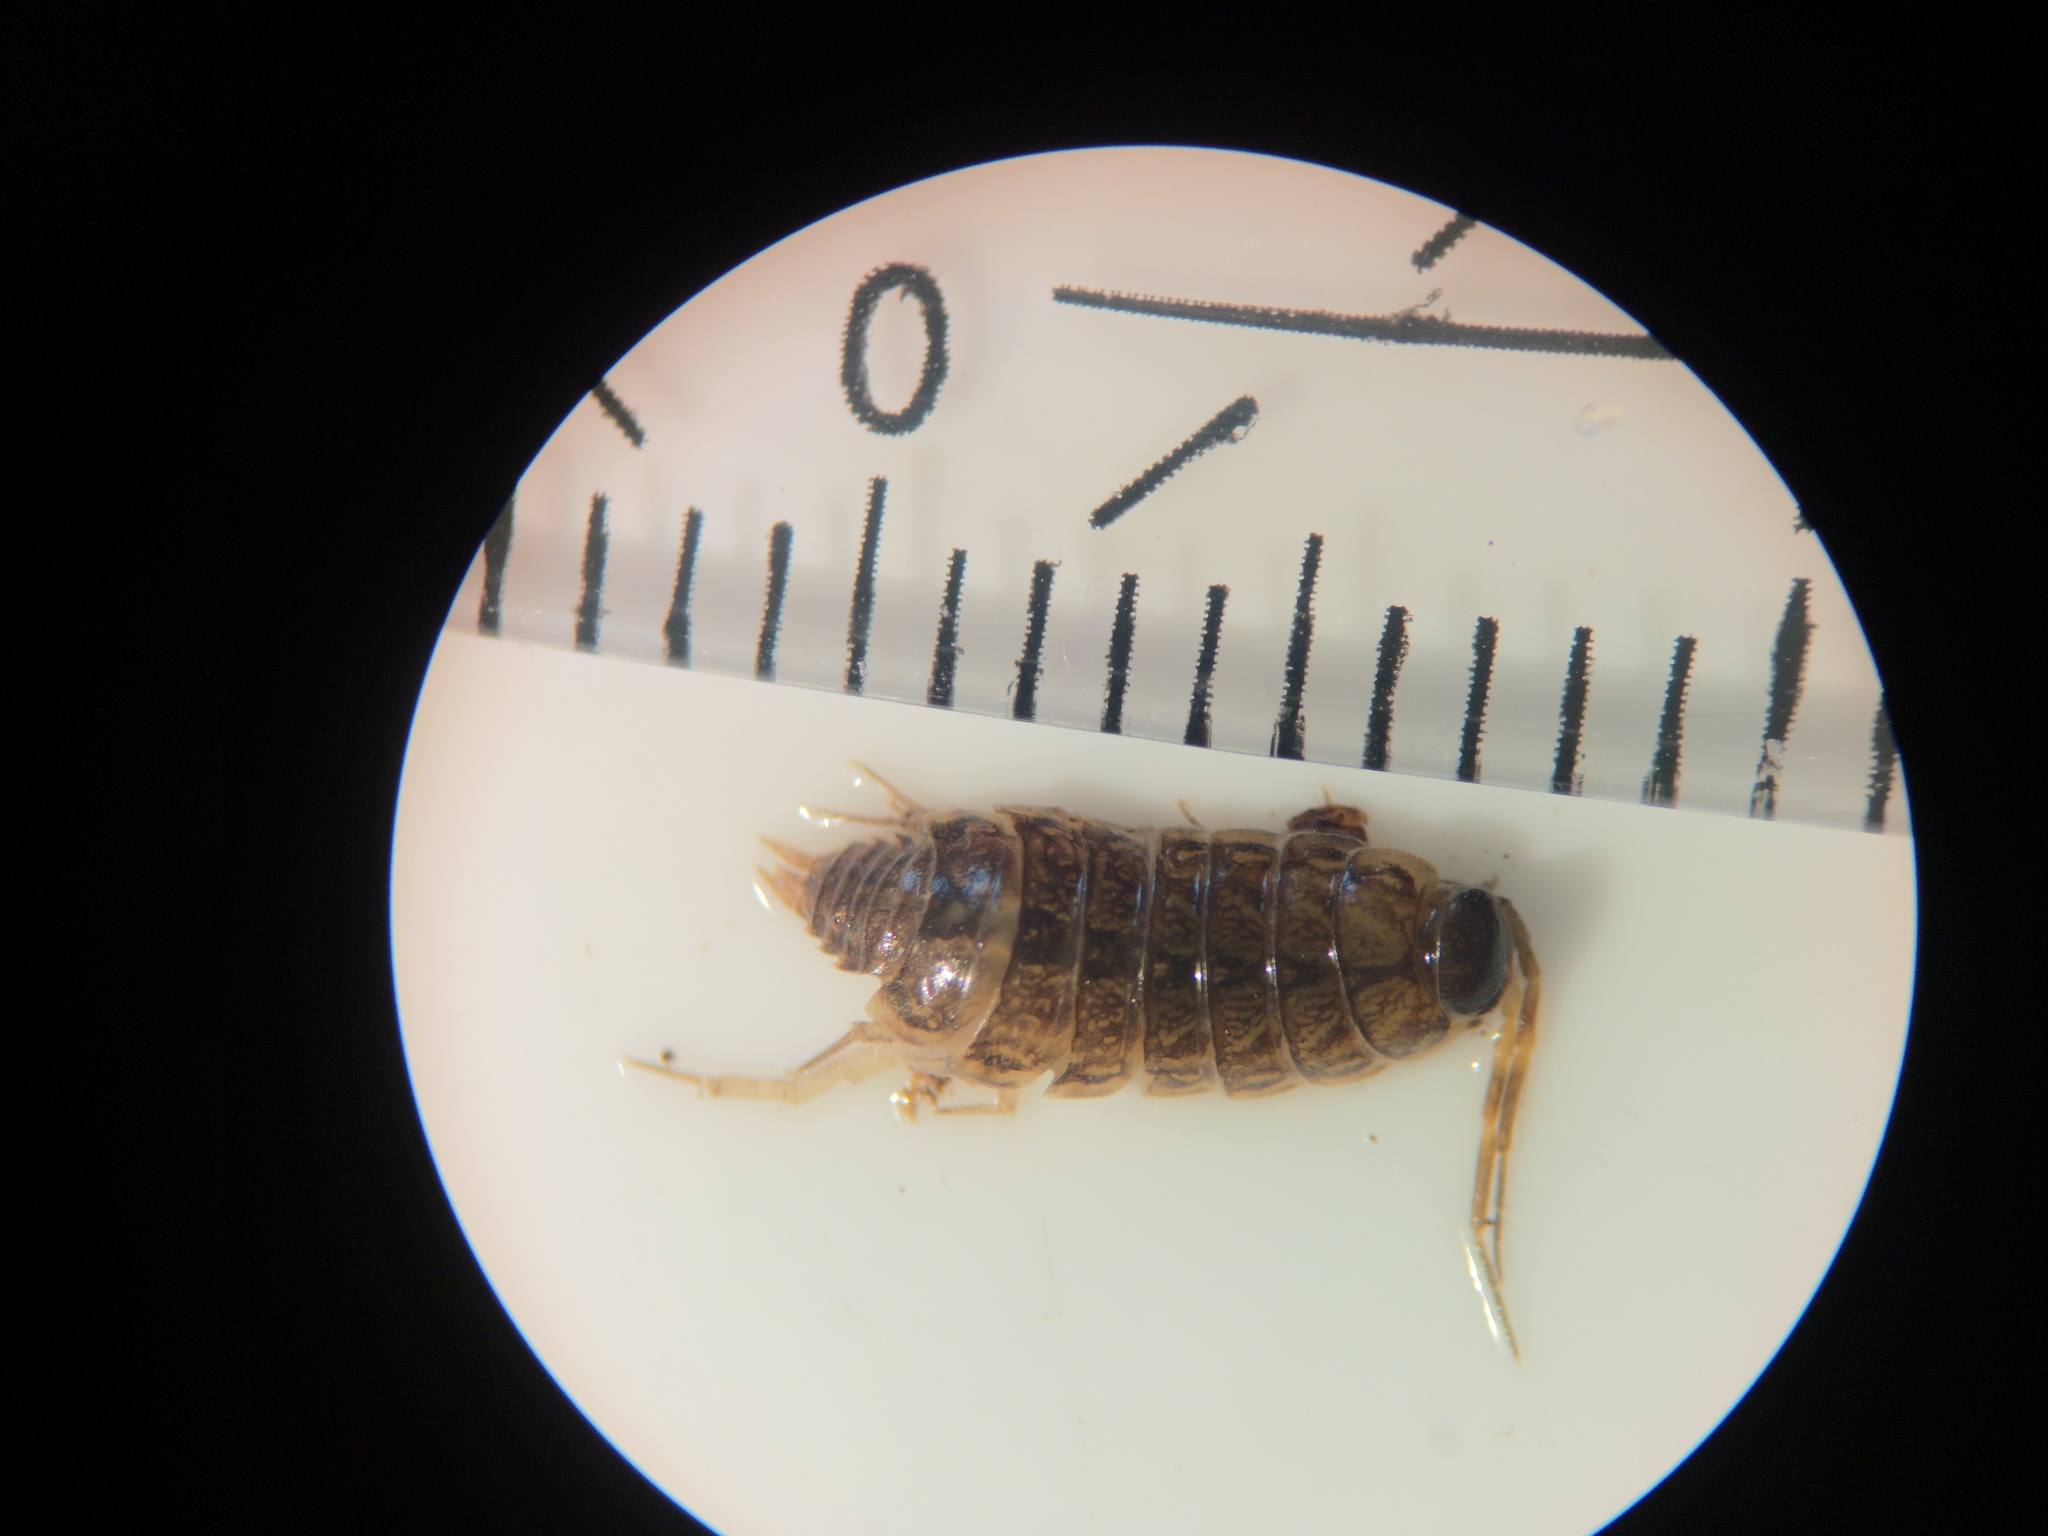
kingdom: Animalia
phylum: Arthropoda
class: Malacostraca
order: Isopoda
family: Philosciidae
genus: Philoscia
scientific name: Philoscia muscorum
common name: Common striped woodlouse
